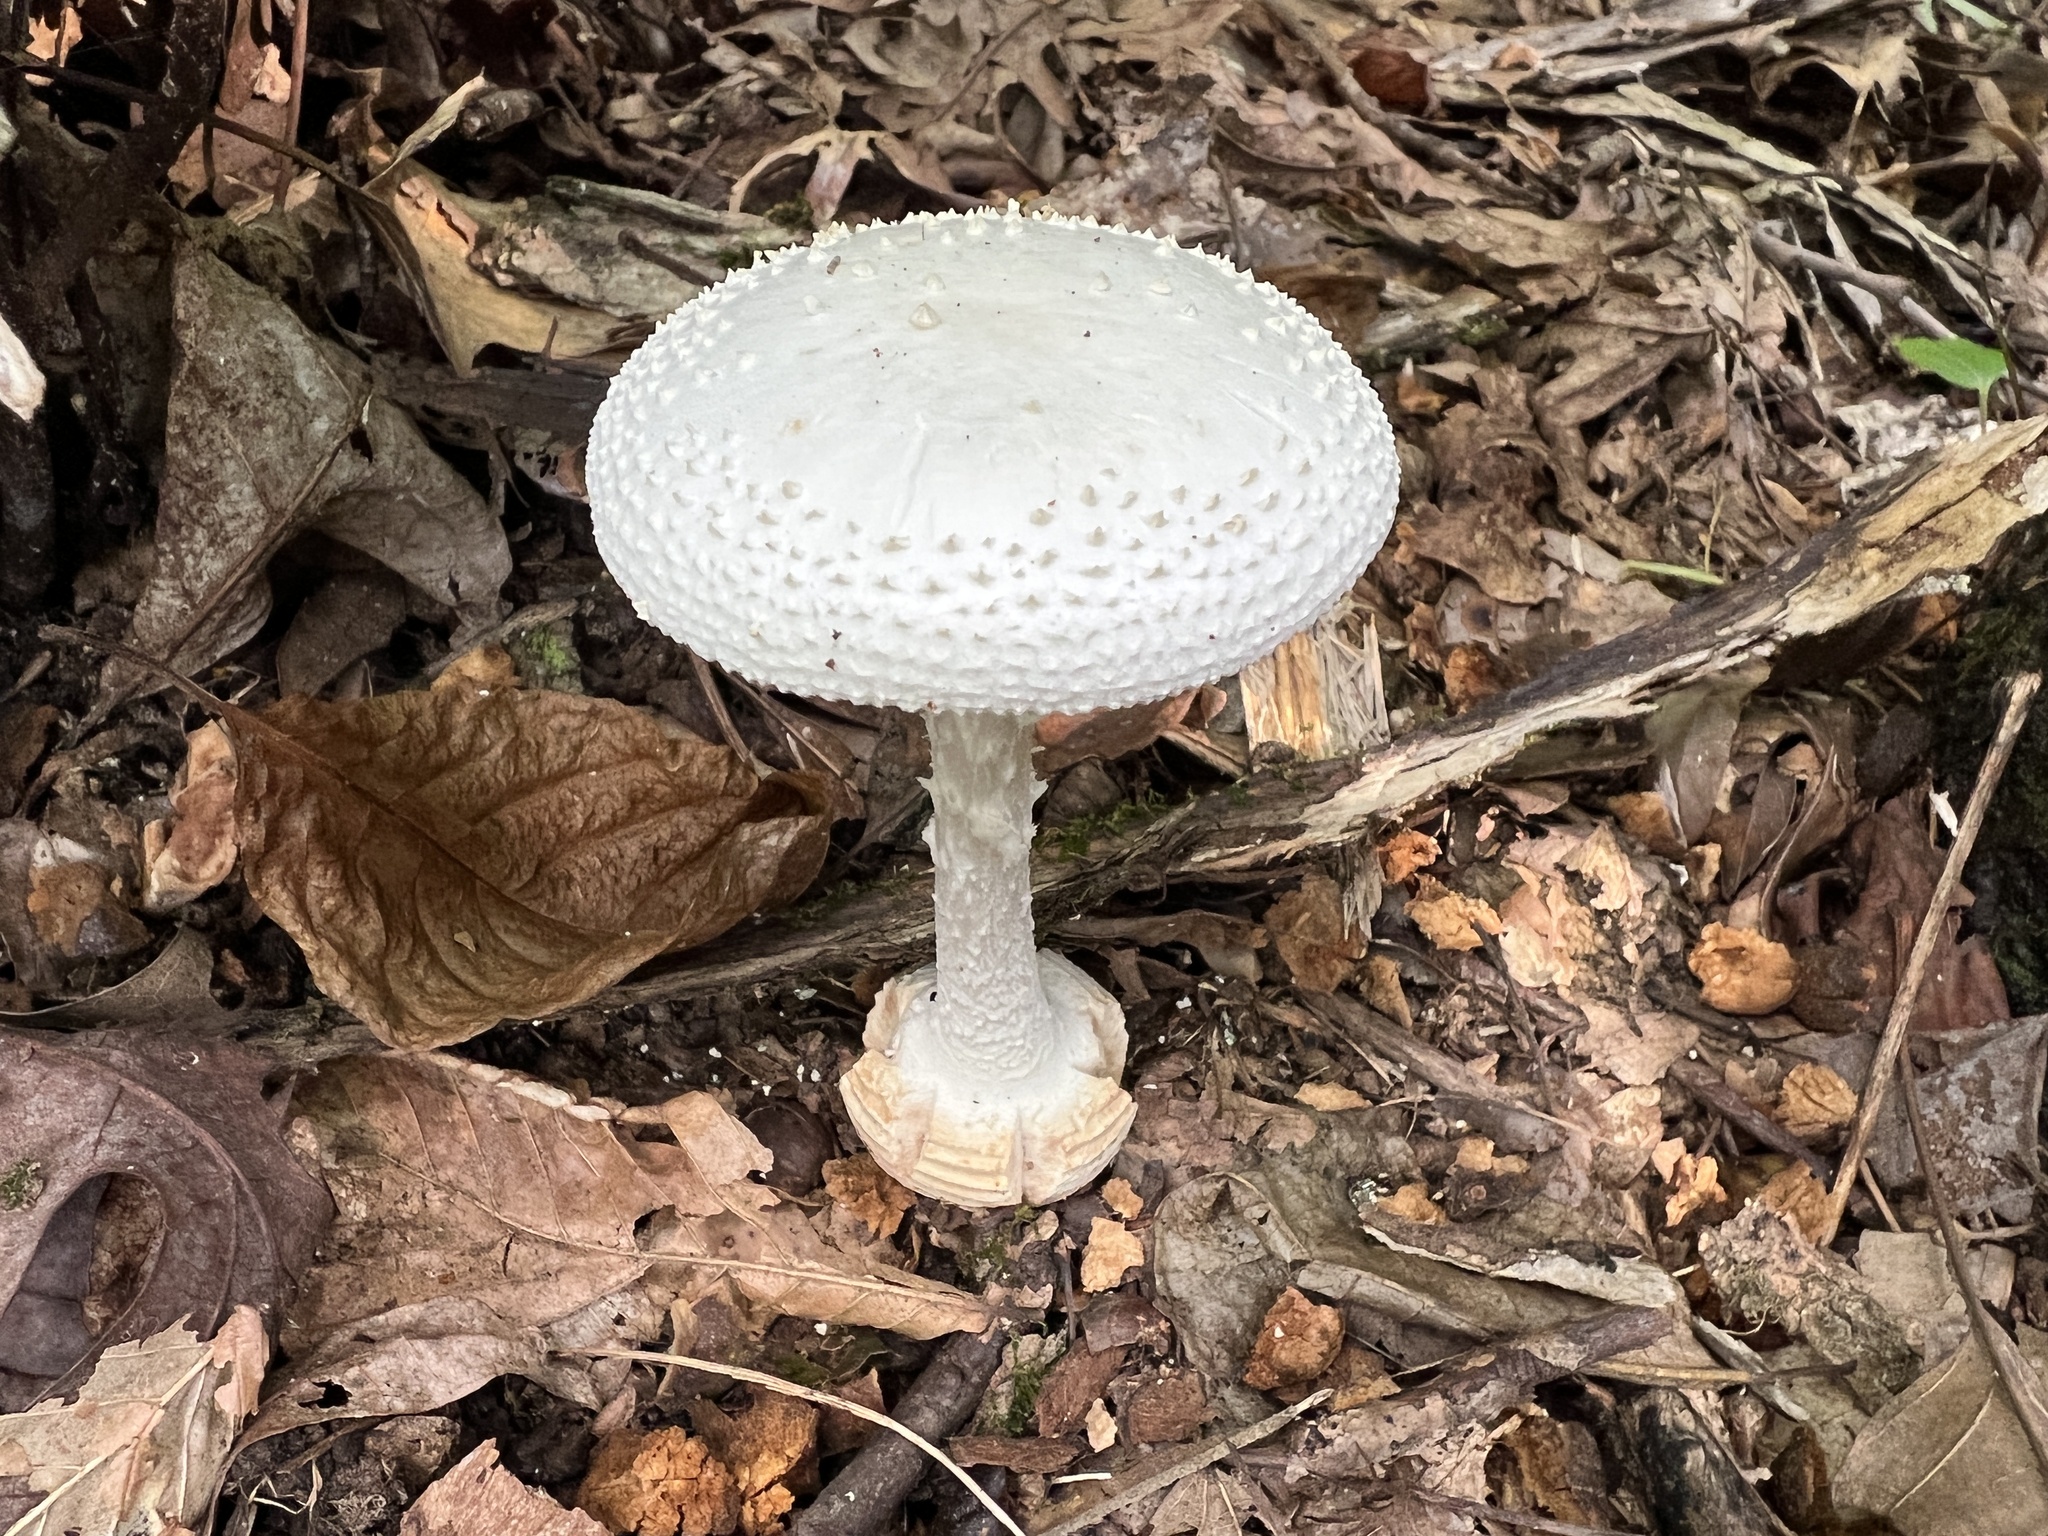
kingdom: Fungi
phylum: Basidiomycota
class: Agaricomycetes
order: Agaricales
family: Amanitaceae
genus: Amanita
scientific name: Amanita cokeri
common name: Coker's amanita
